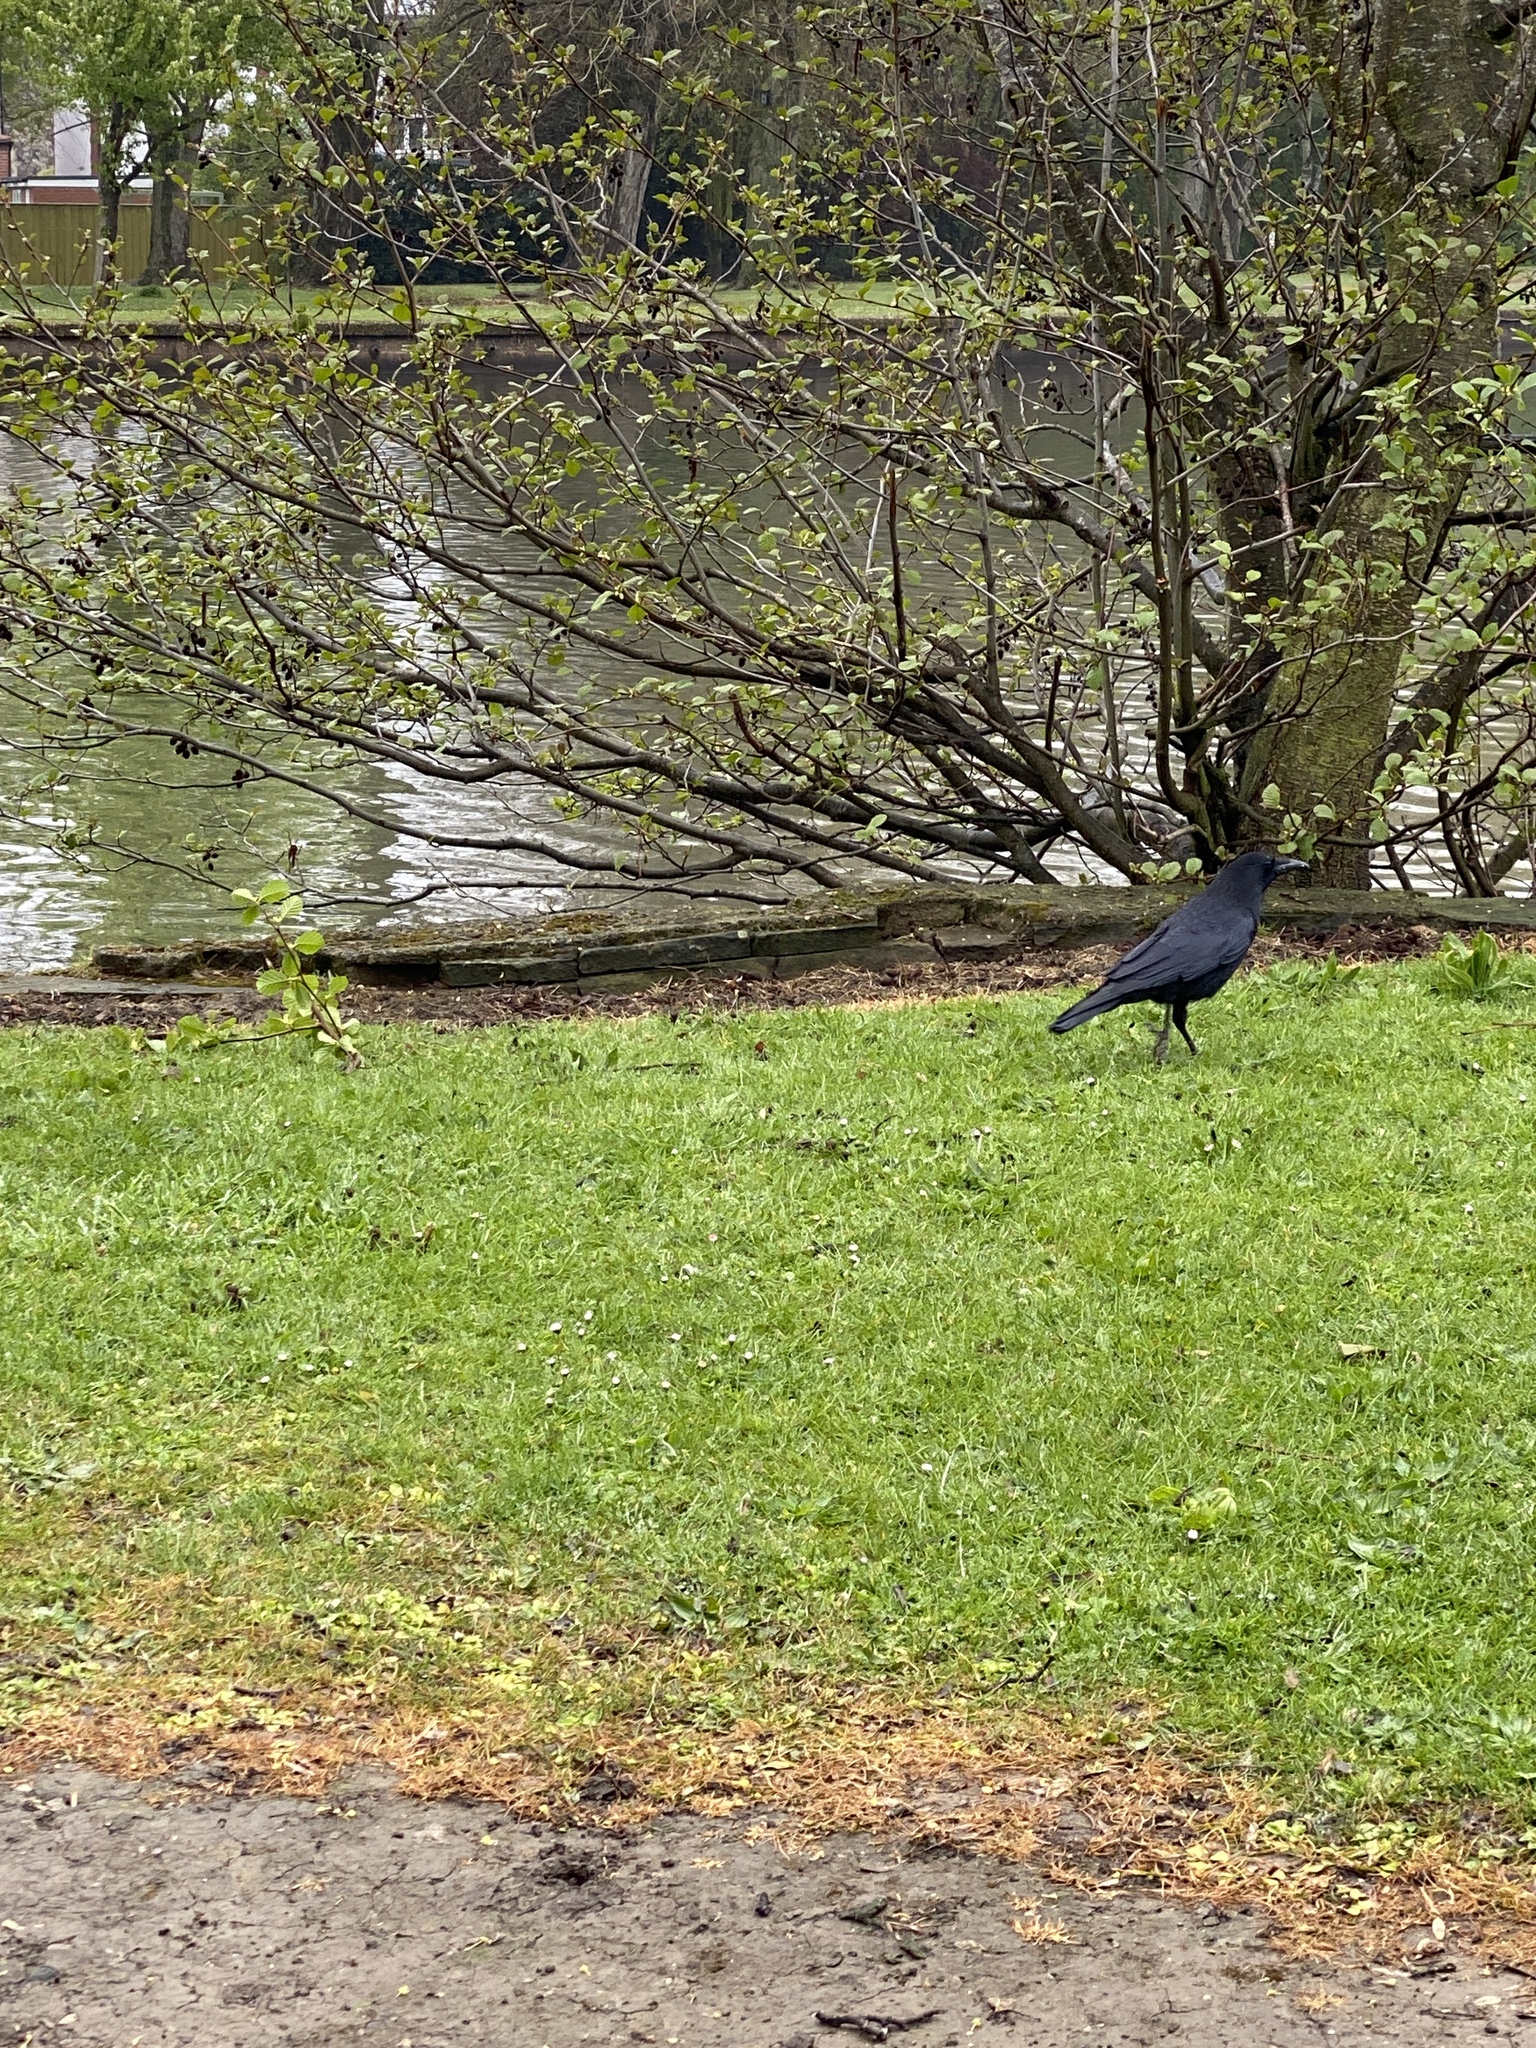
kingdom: Animalia
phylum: Chordata
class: Aves
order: Passeriformes
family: Corvidae
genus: Corvus
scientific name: Corvus corone
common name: Carrion crow
